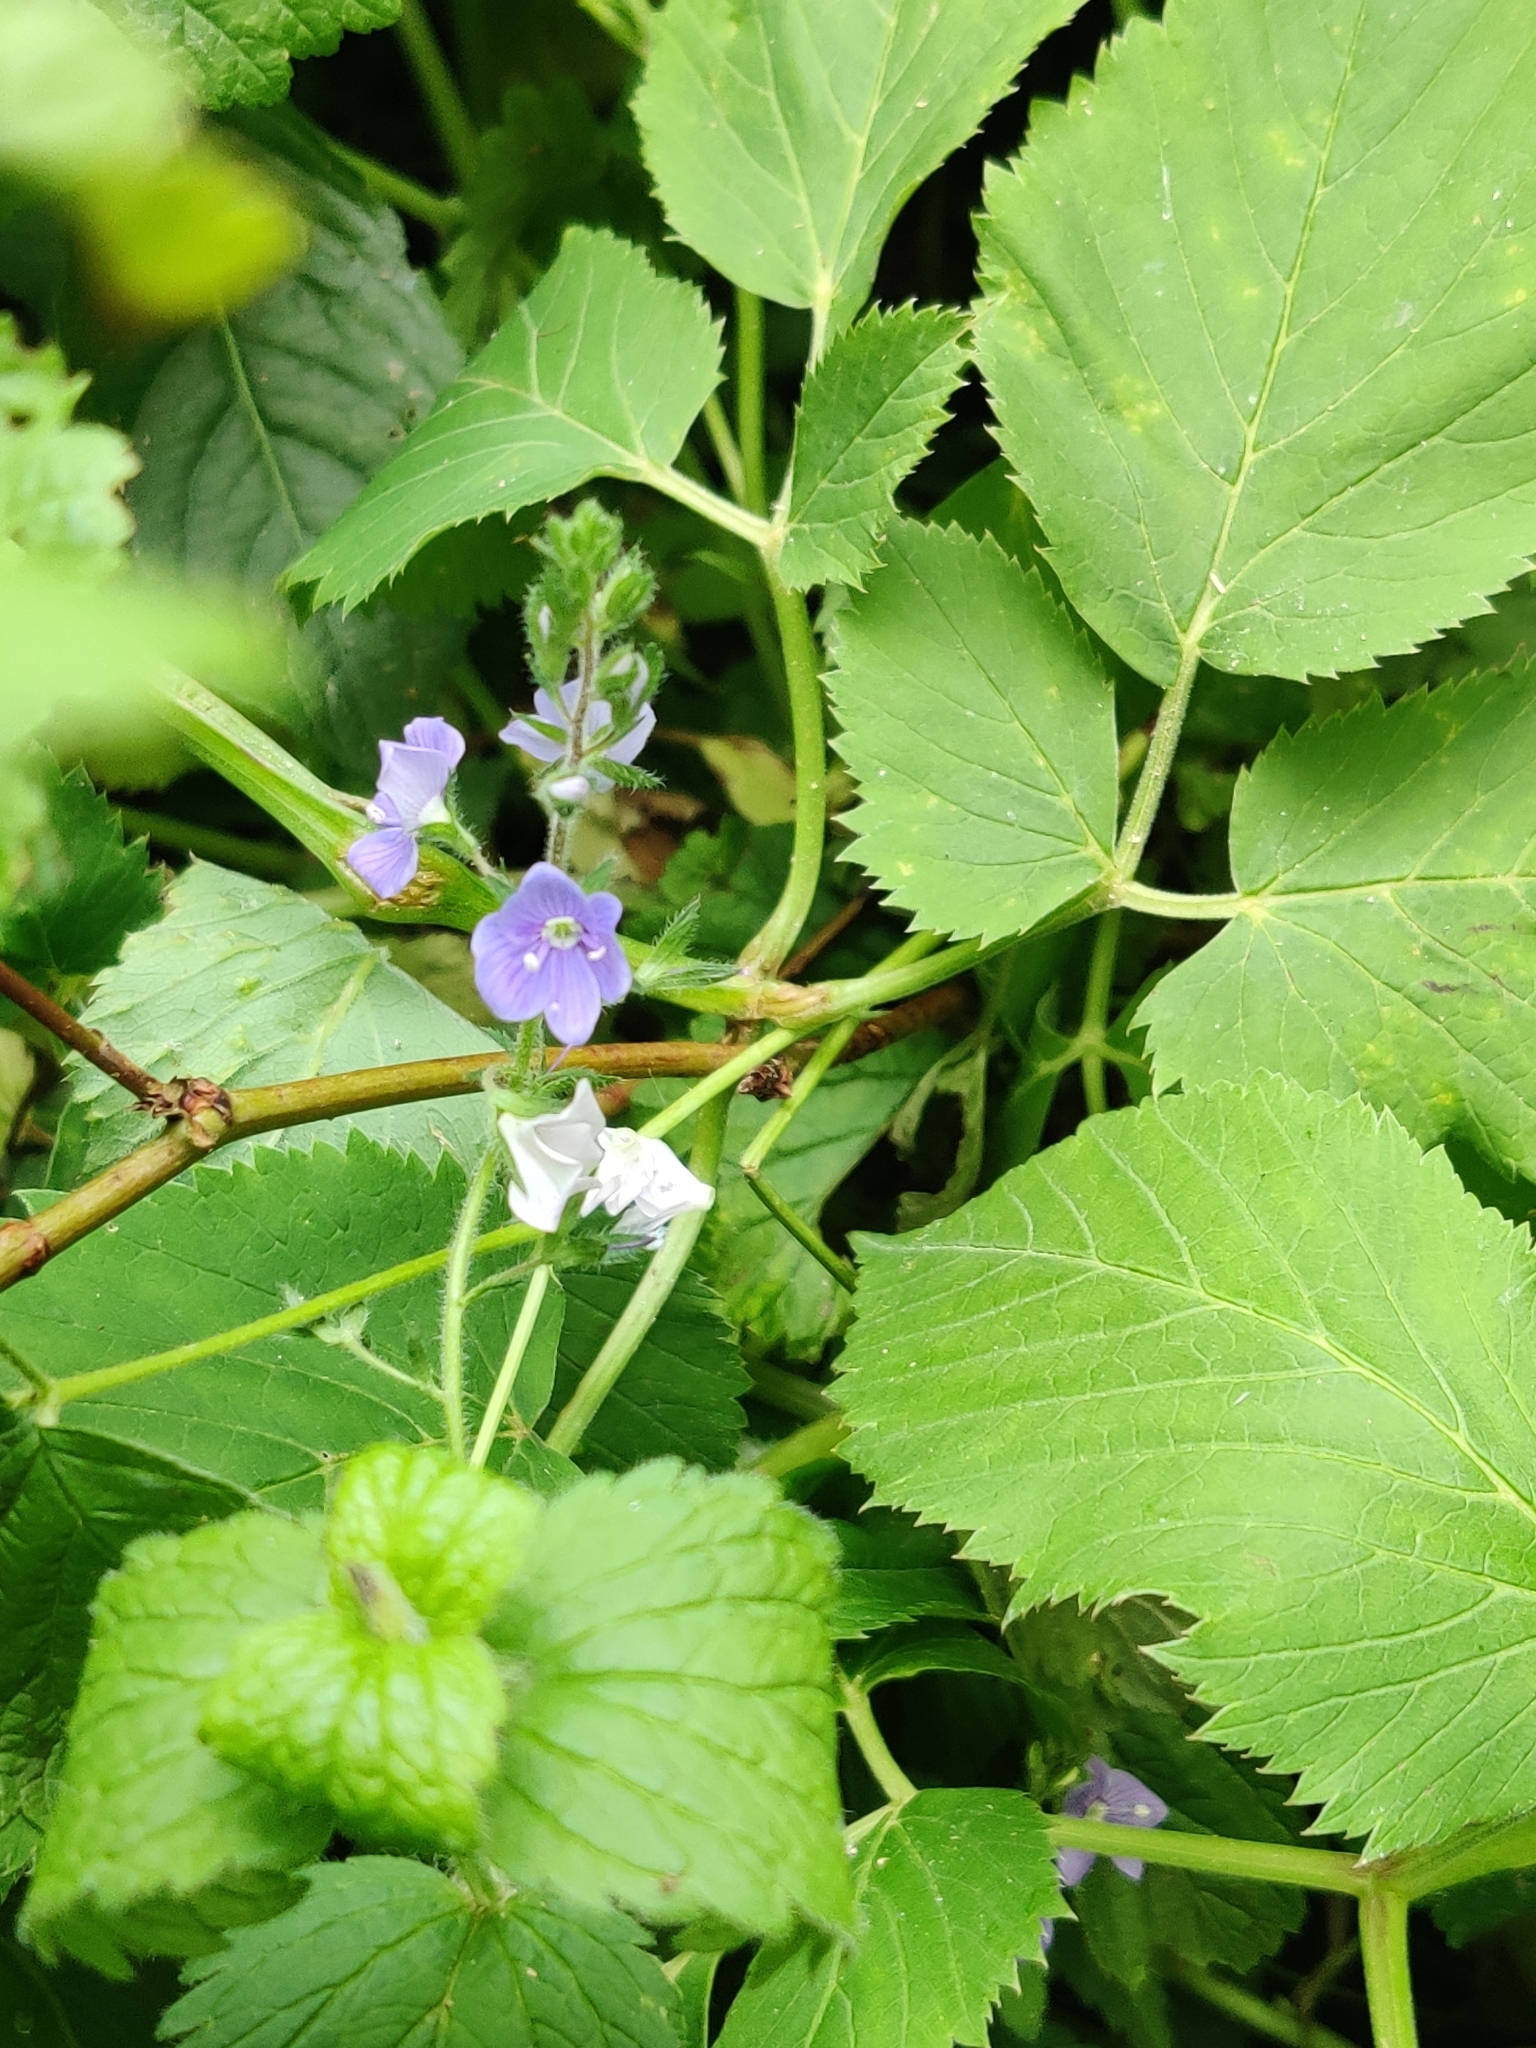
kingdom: Plantae
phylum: Tracheophyta
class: Magnoliopsida
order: Lamiales
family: Plantaginaceae
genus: Veronica
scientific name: Veronica chamaedrys
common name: Germander speedwell
